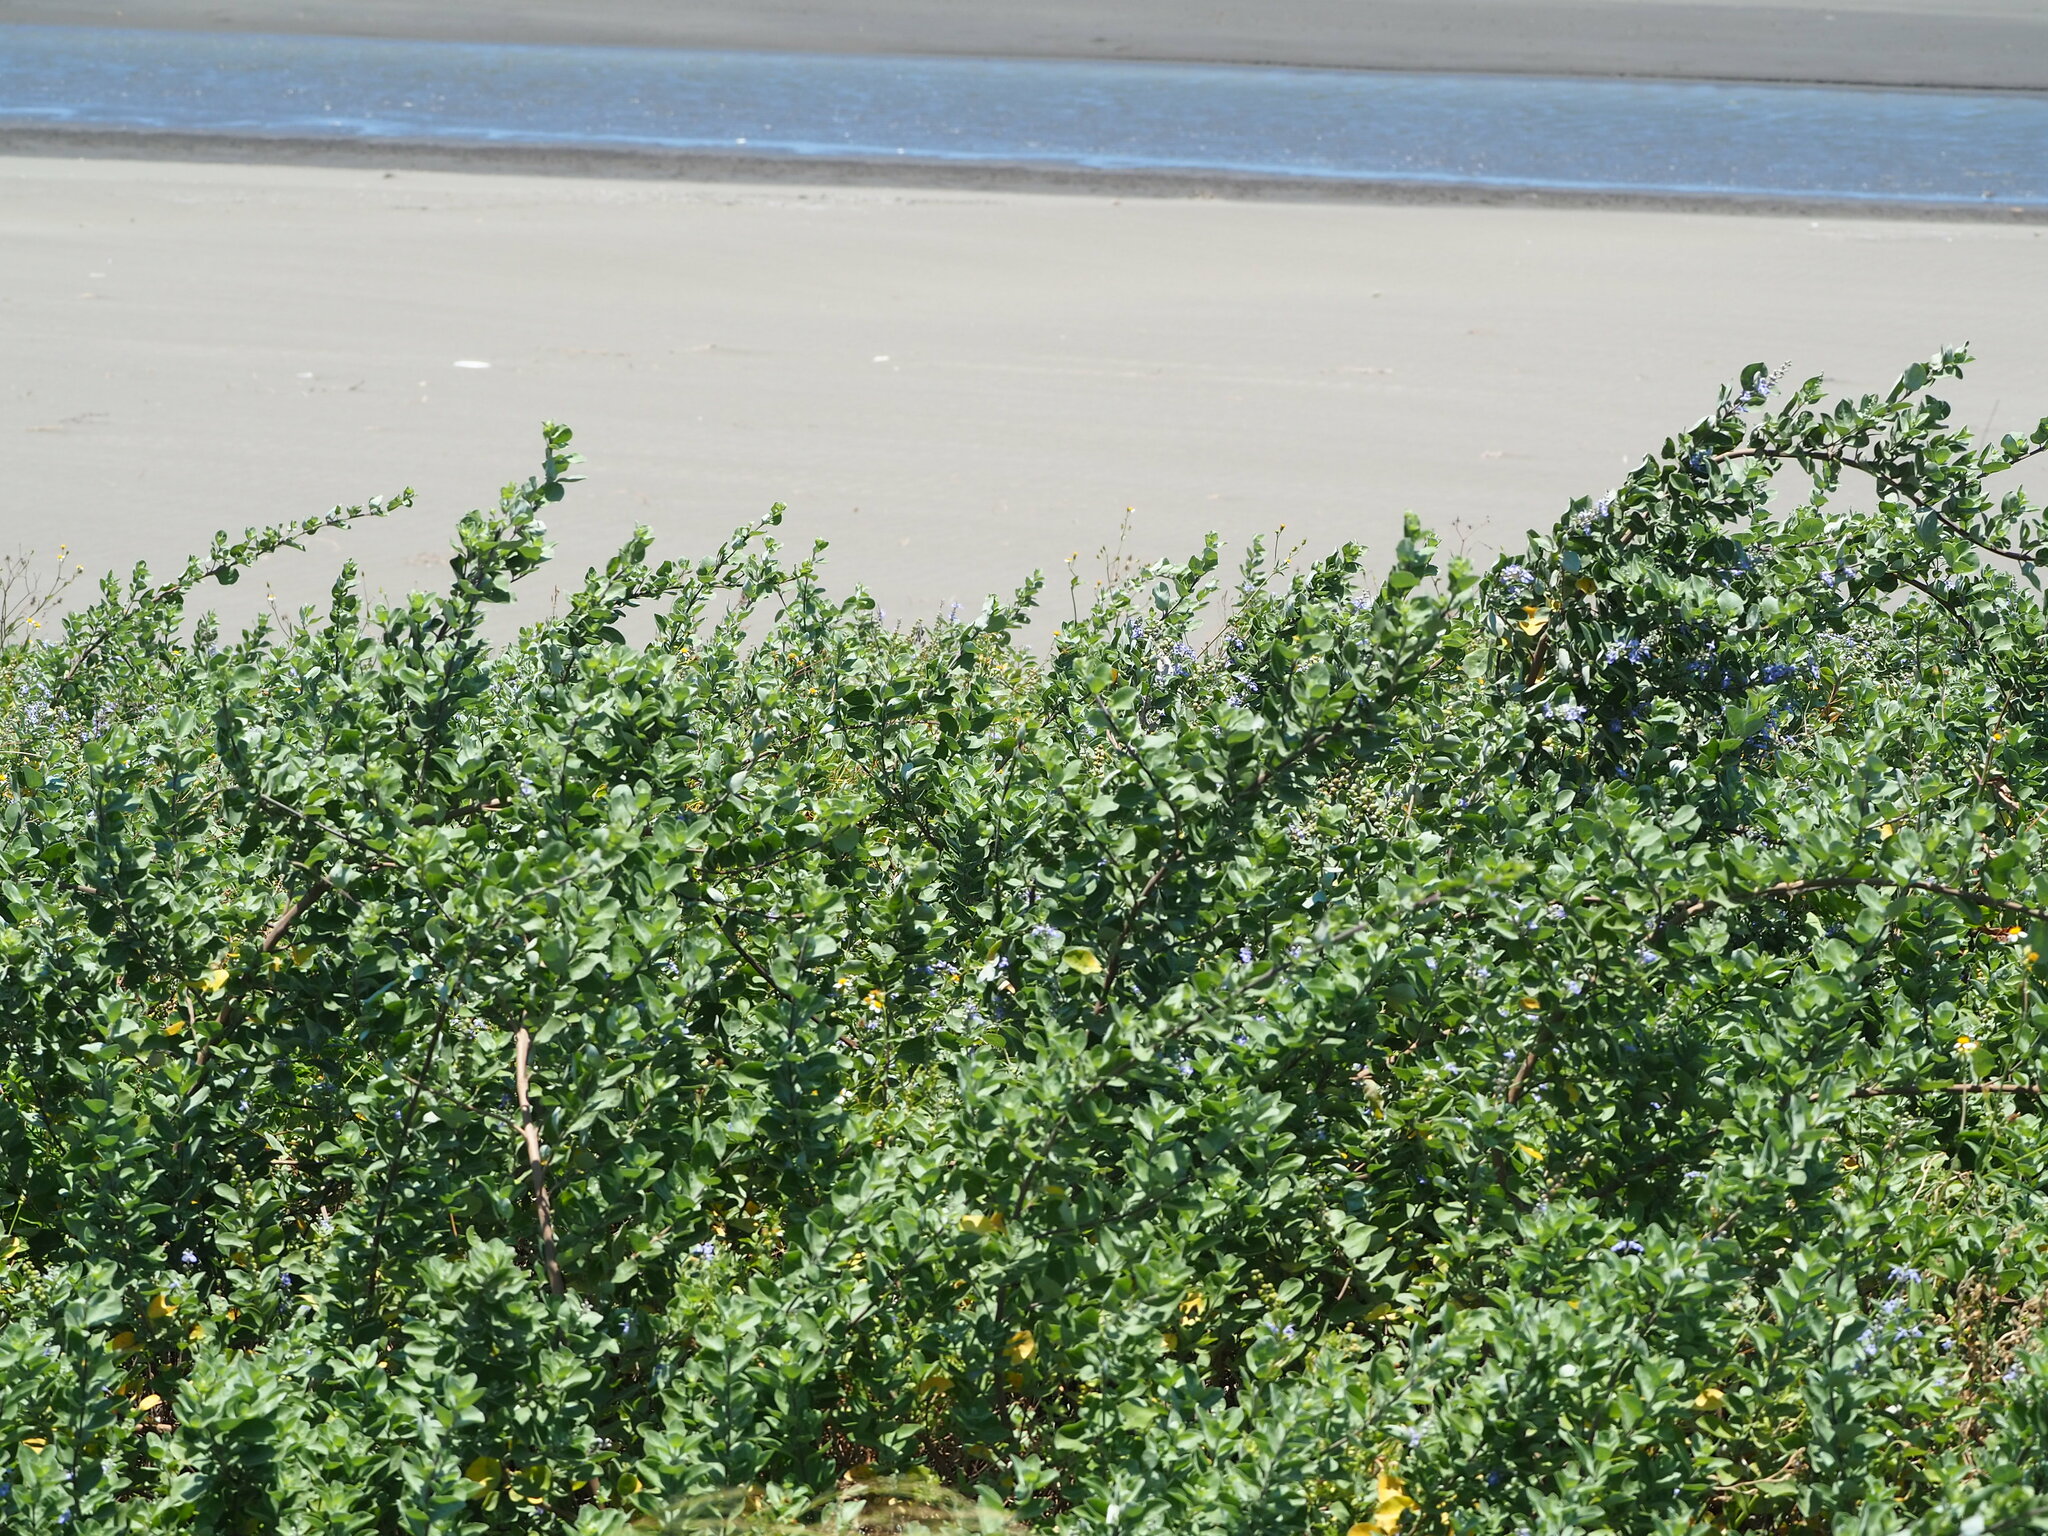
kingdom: Plantae
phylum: Tracheophyta
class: Magnoliopsida
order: Lamiales
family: Lamiaceae
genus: Vitex
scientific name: Vitex rotundifolia
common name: Beach vitex
